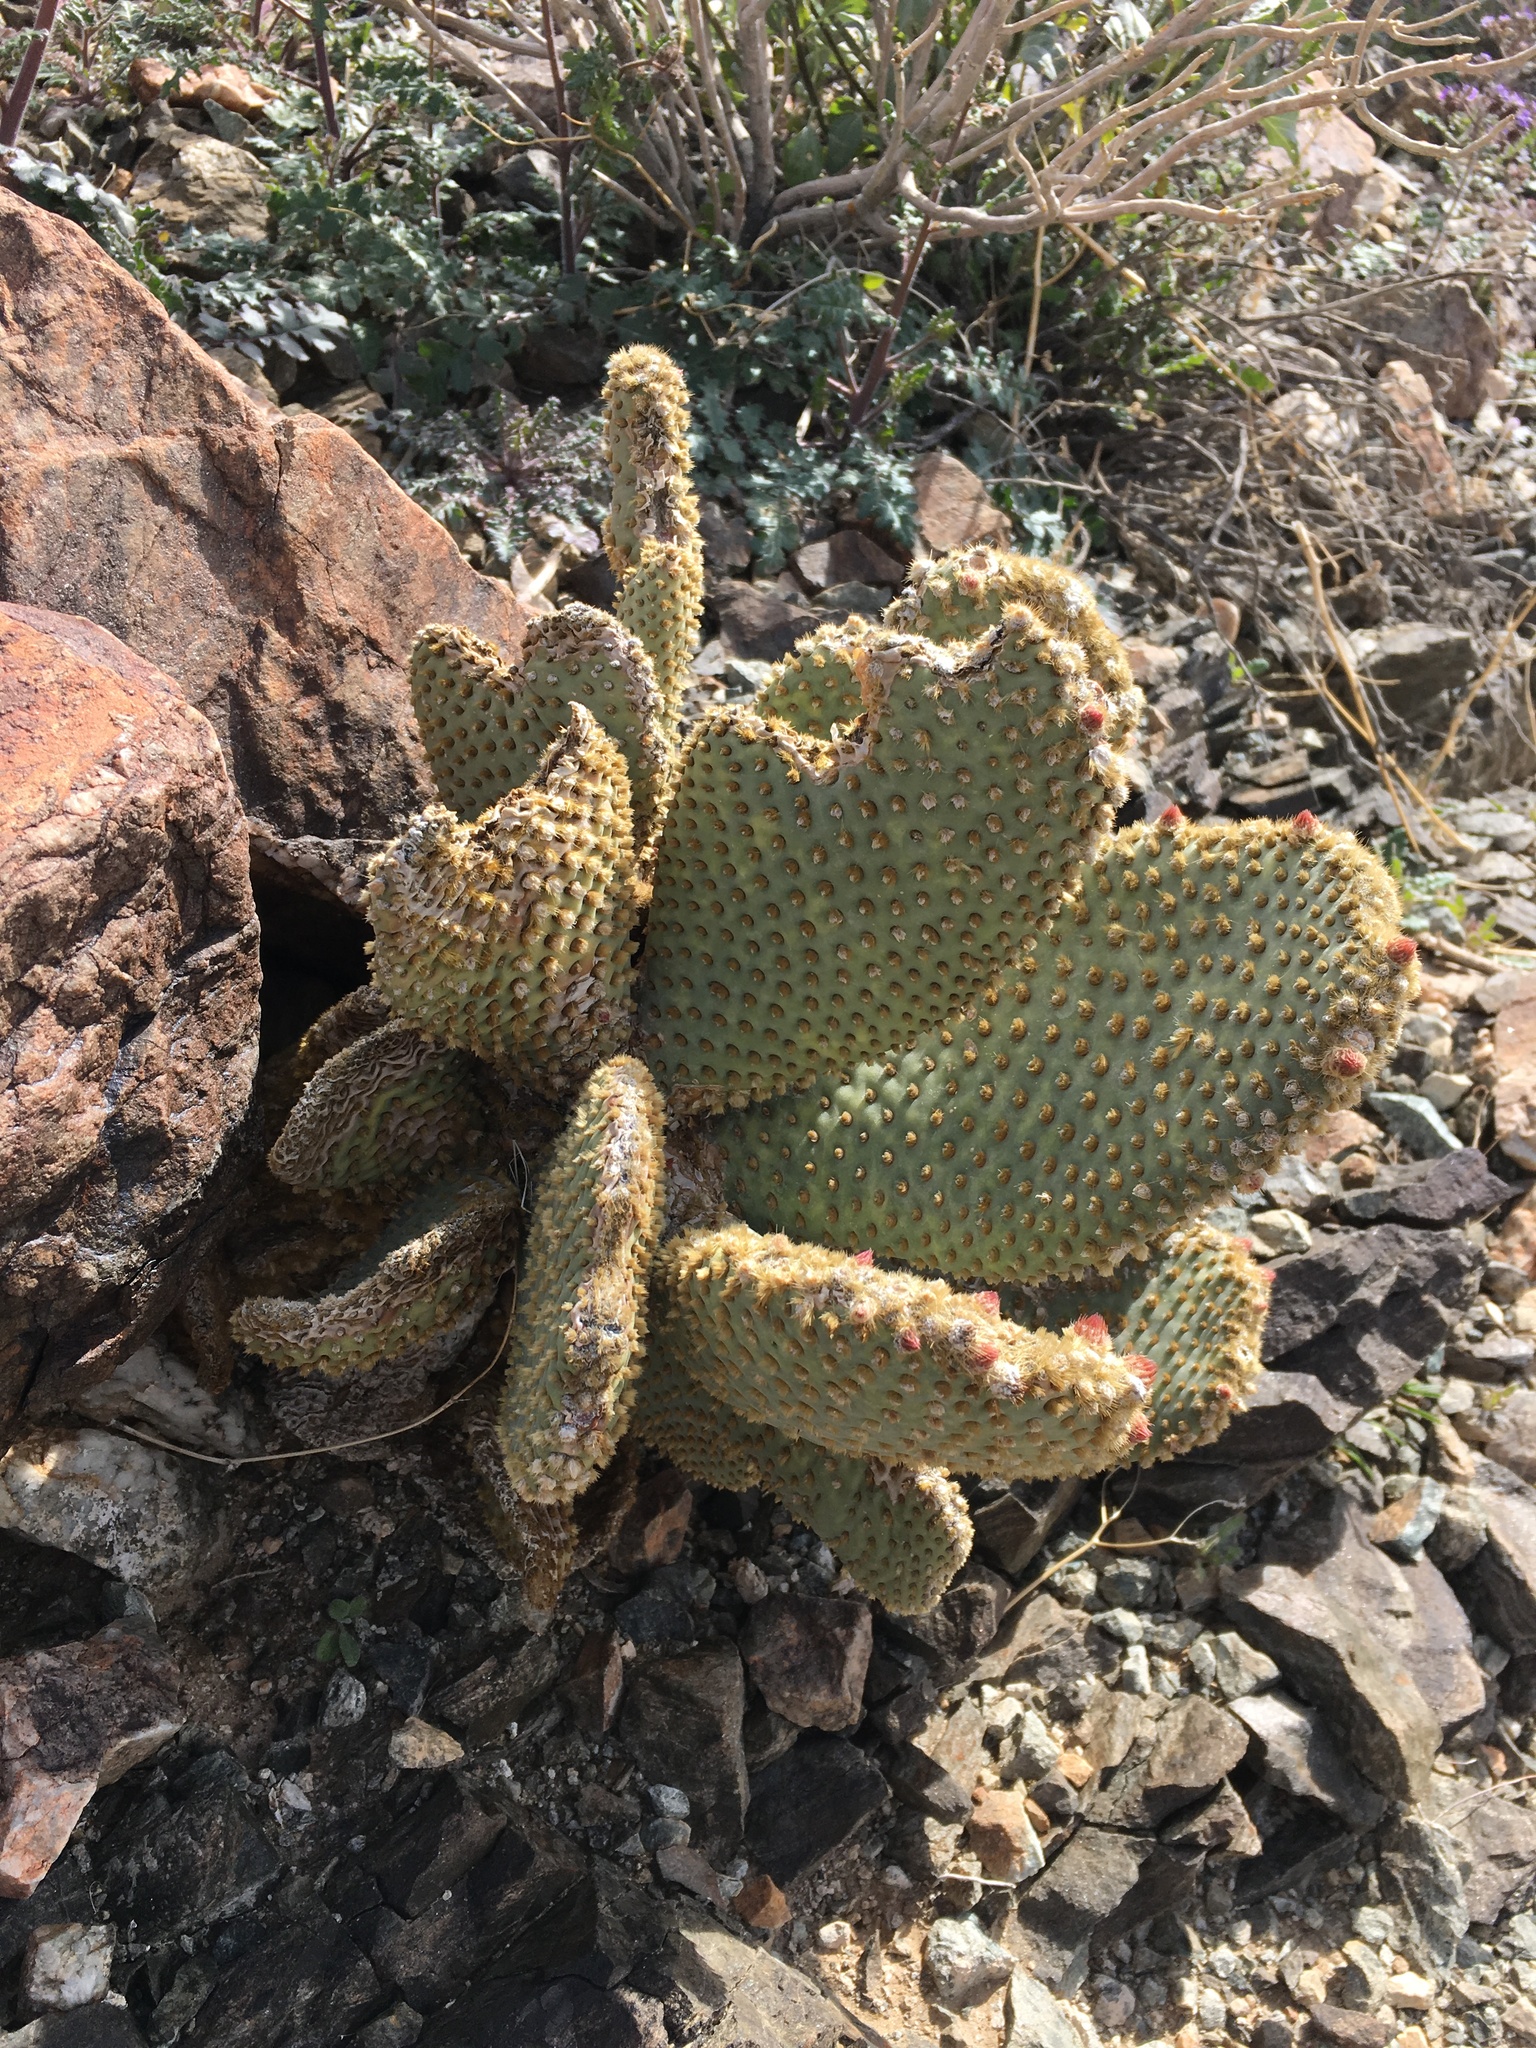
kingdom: Plantae
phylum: Tracheophyta
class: Magnoliopsida
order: Caryophyllales
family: Cactaceae
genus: Opuntia
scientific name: Opuntia basilaris
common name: Beavertail prickly-pear
